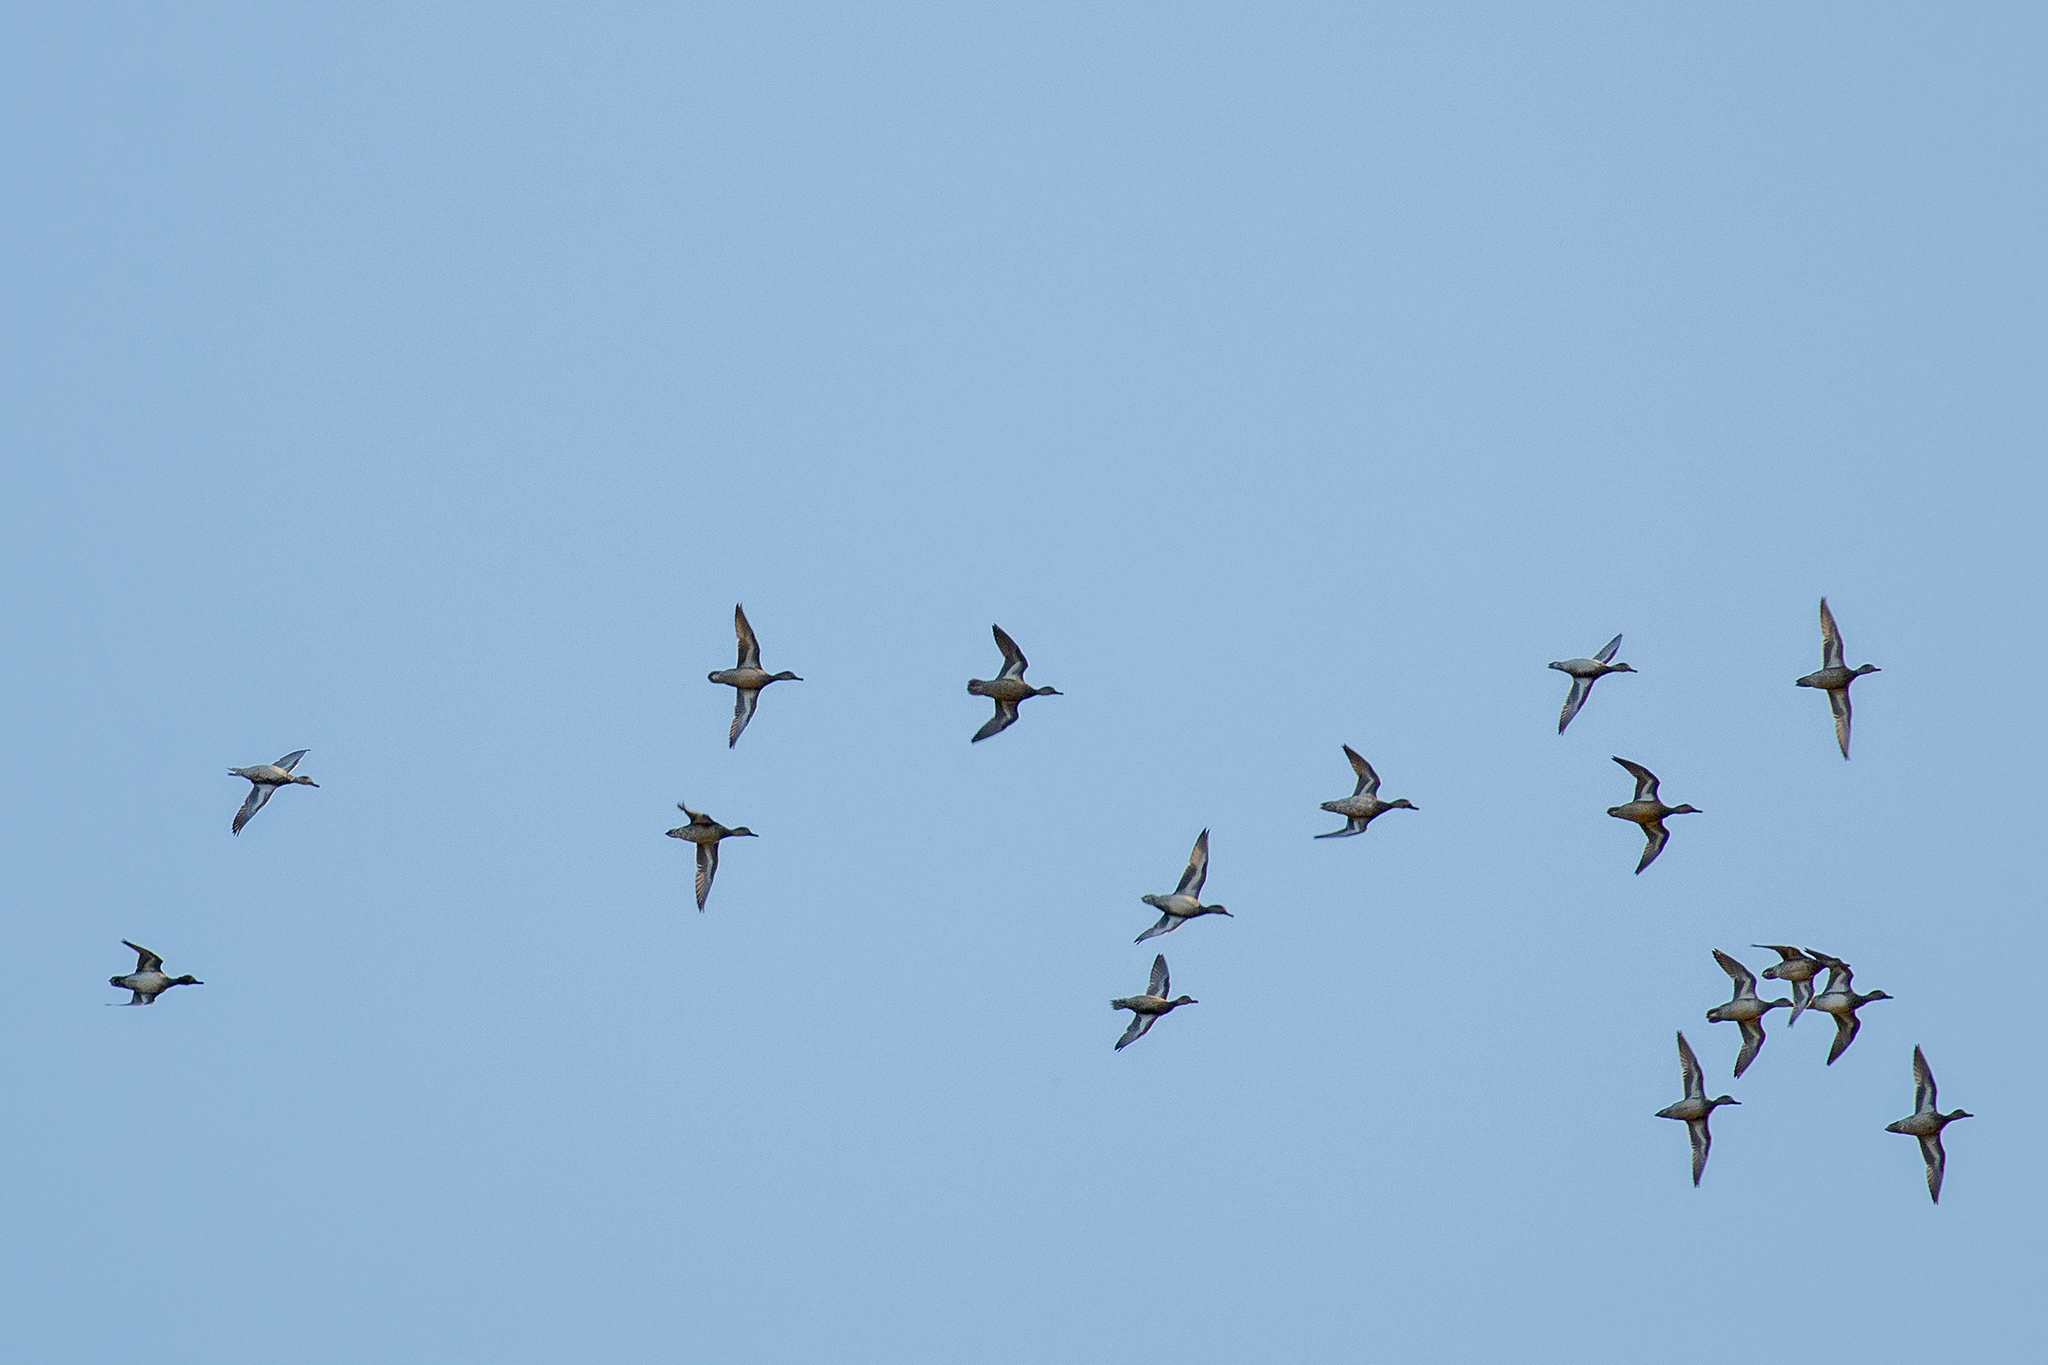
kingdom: Animalia
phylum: Chordata
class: Aves
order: Anseriformes
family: Anatidae
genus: Anas
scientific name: Anas crecca
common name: Eurasian teal
